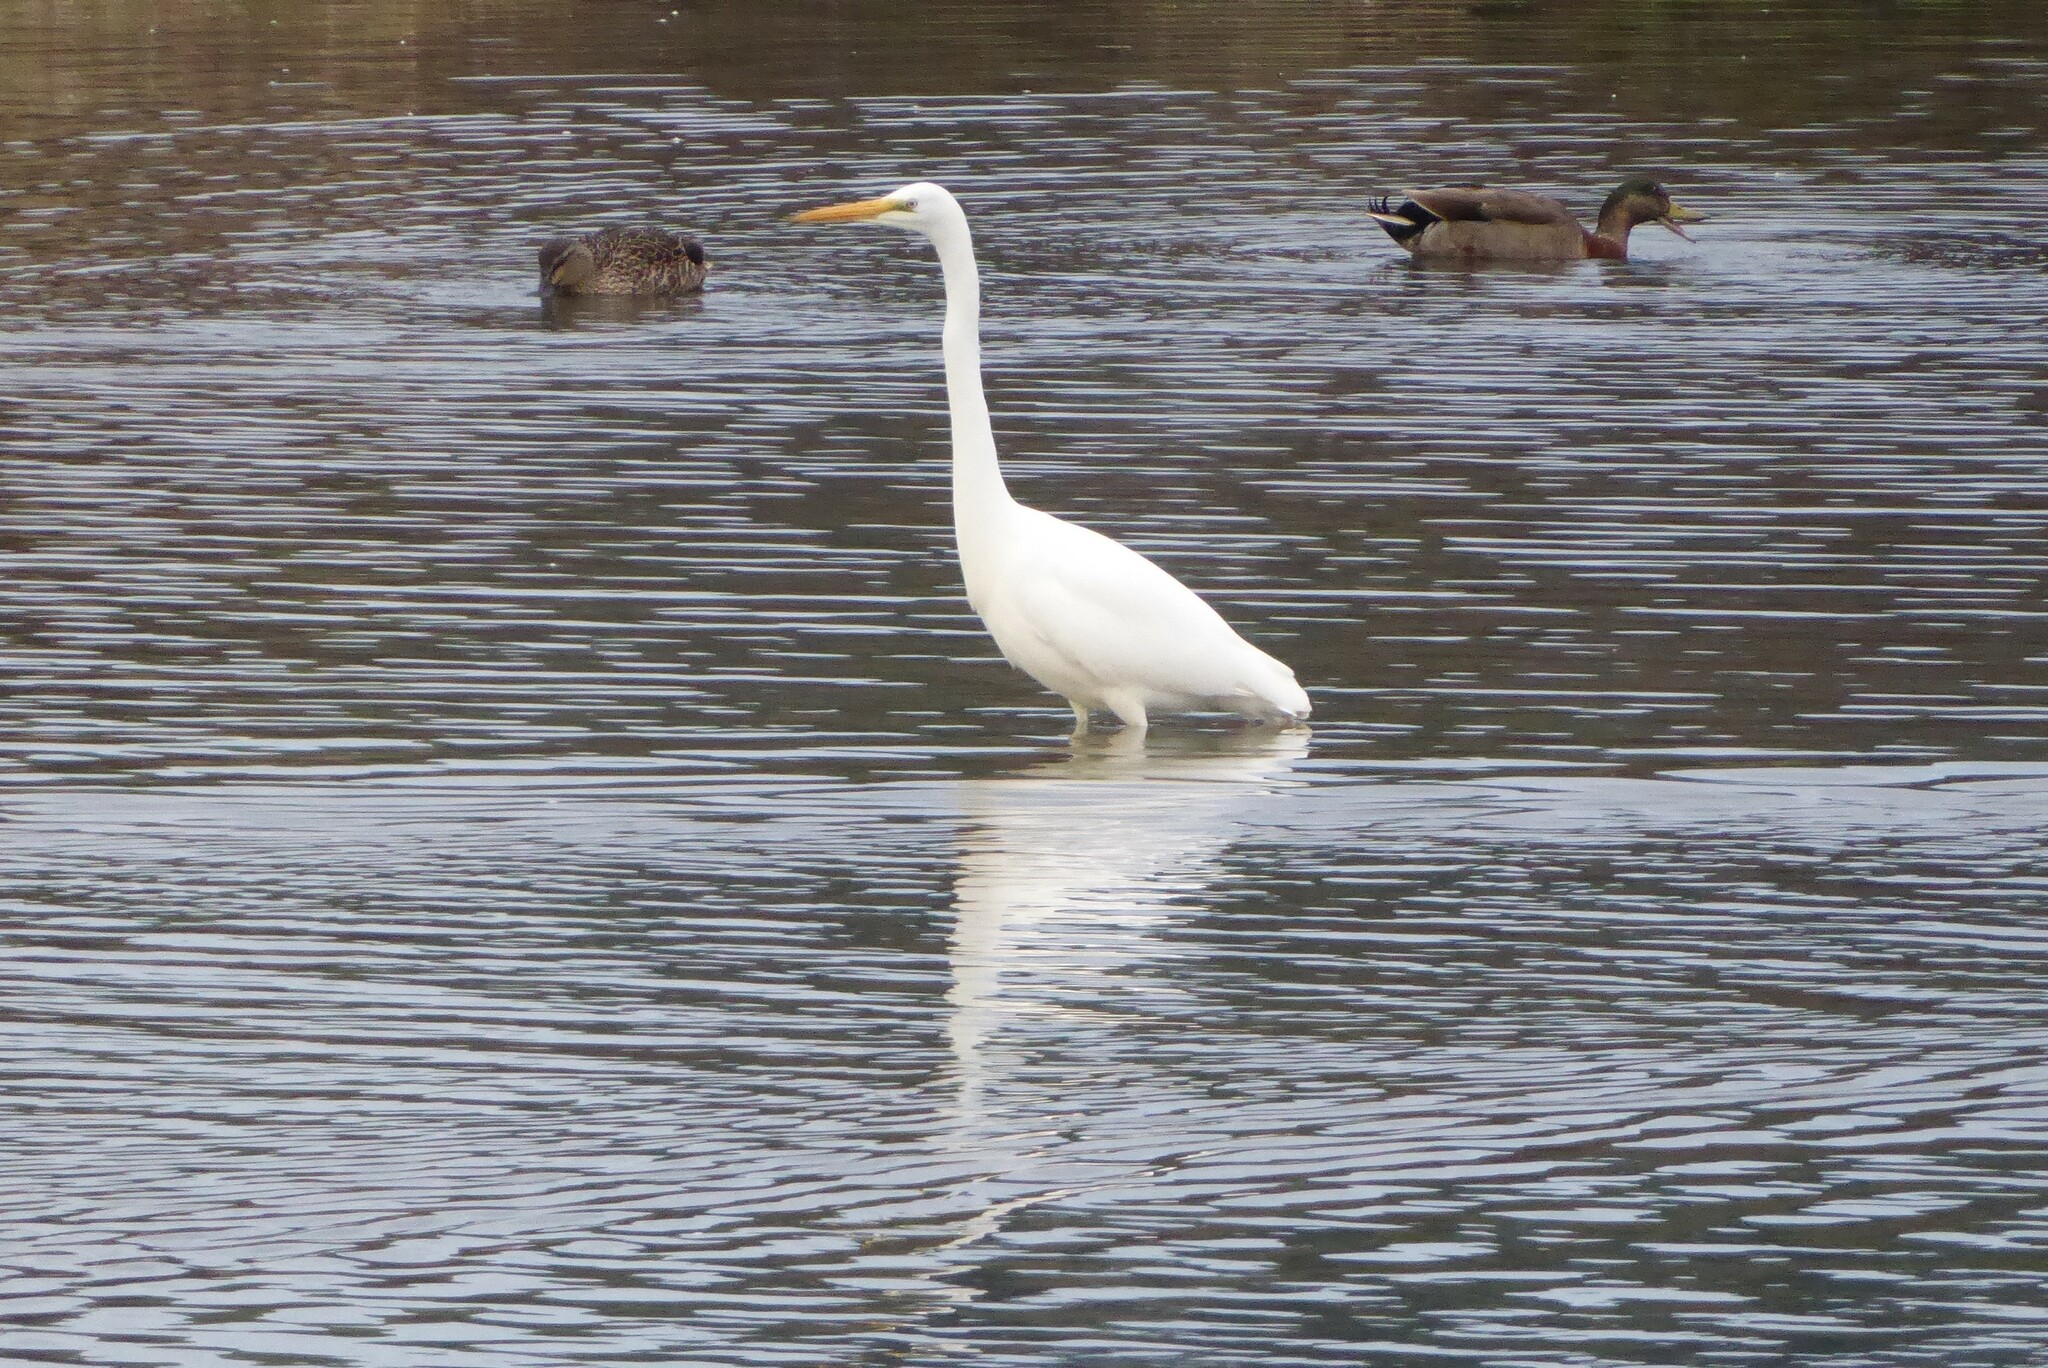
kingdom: Animalia
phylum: Chordata
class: Aves
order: Pelecaniformes
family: Ardeidae
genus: Ardea
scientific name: Ardea modesta
